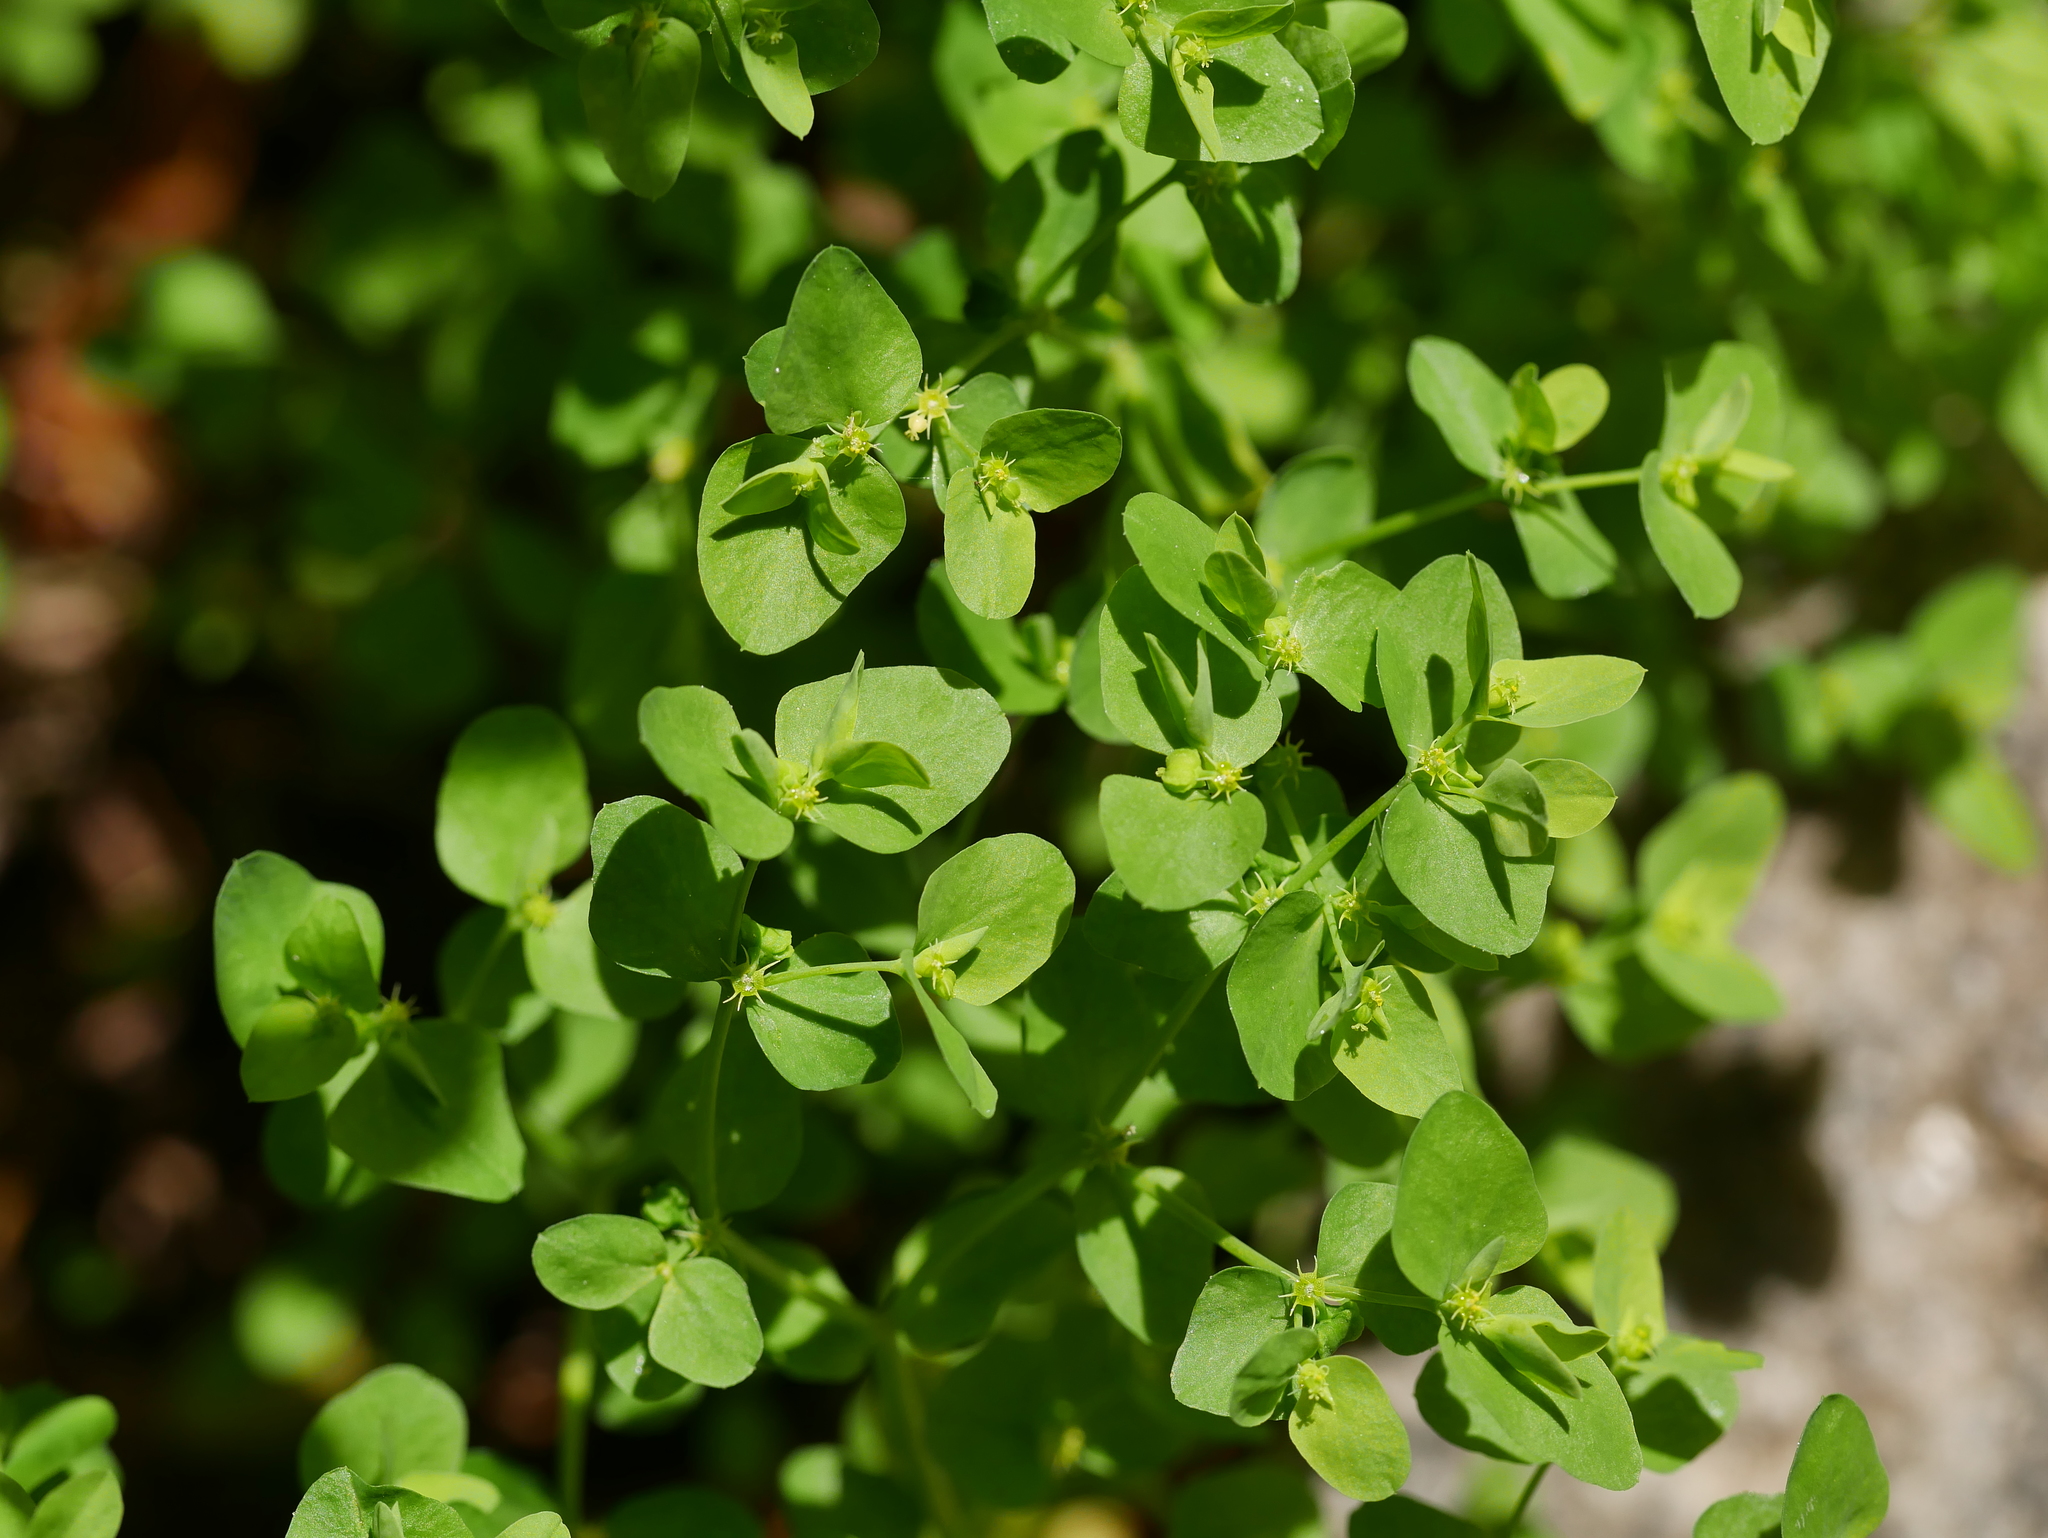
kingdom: Plantae
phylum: Tracheophyta
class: Magnoliopsida
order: Malpighiales
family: Euphorbiaceae
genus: Euphorbia
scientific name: Euphorbia peplus
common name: Petty spurge
